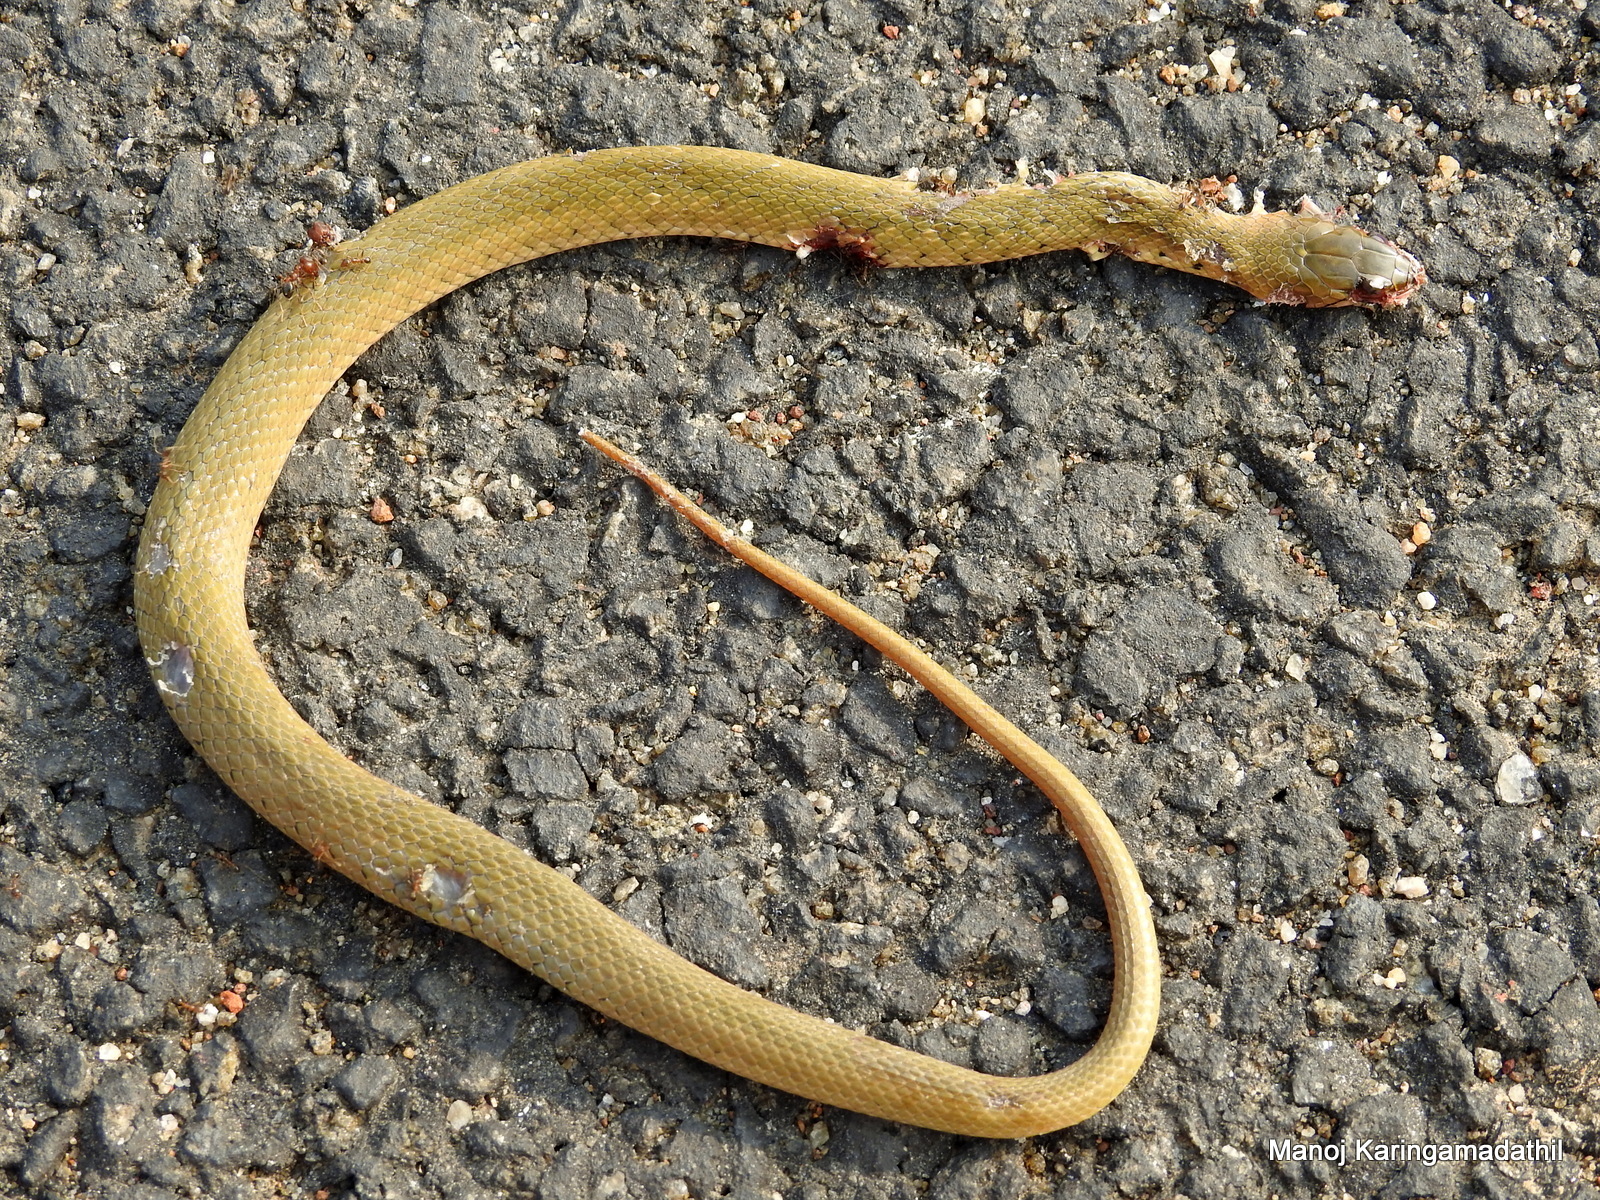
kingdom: Animalia
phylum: Chordata
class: Squamata
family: Colubridae
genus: Fowlea
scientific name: Fowlea piscator
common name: Asiatic water snake
